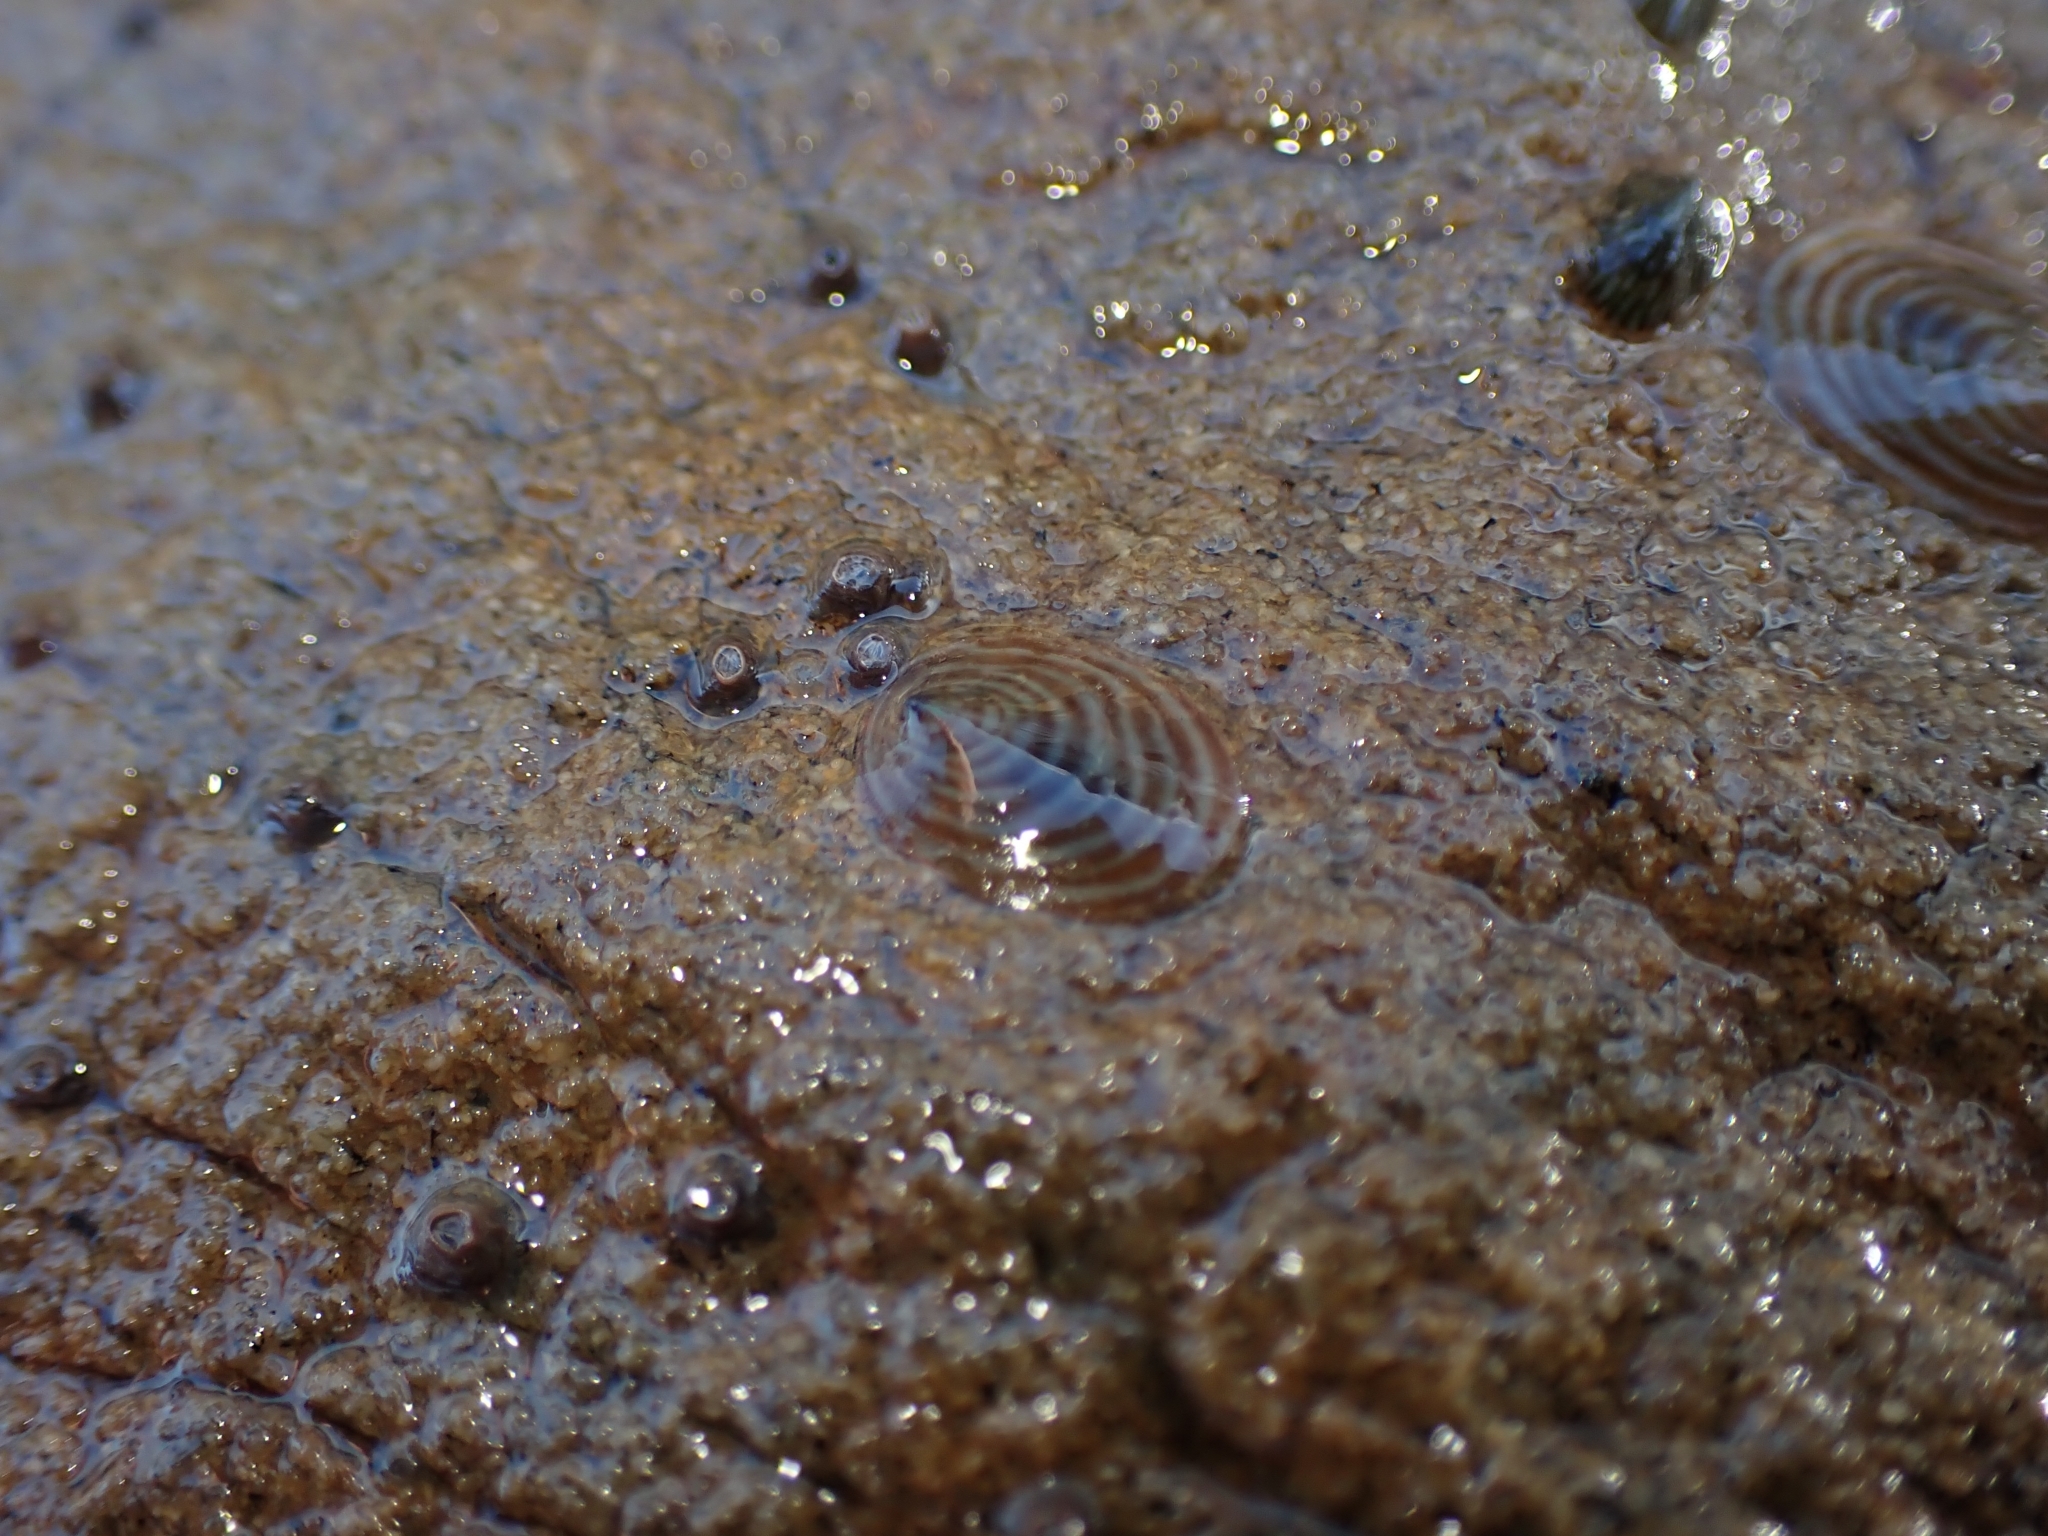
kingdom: Animalia
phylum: Mollusca
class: Gastropoda
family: Lottiidae
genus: Atalacmea
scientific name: Atalacmea fragilis
